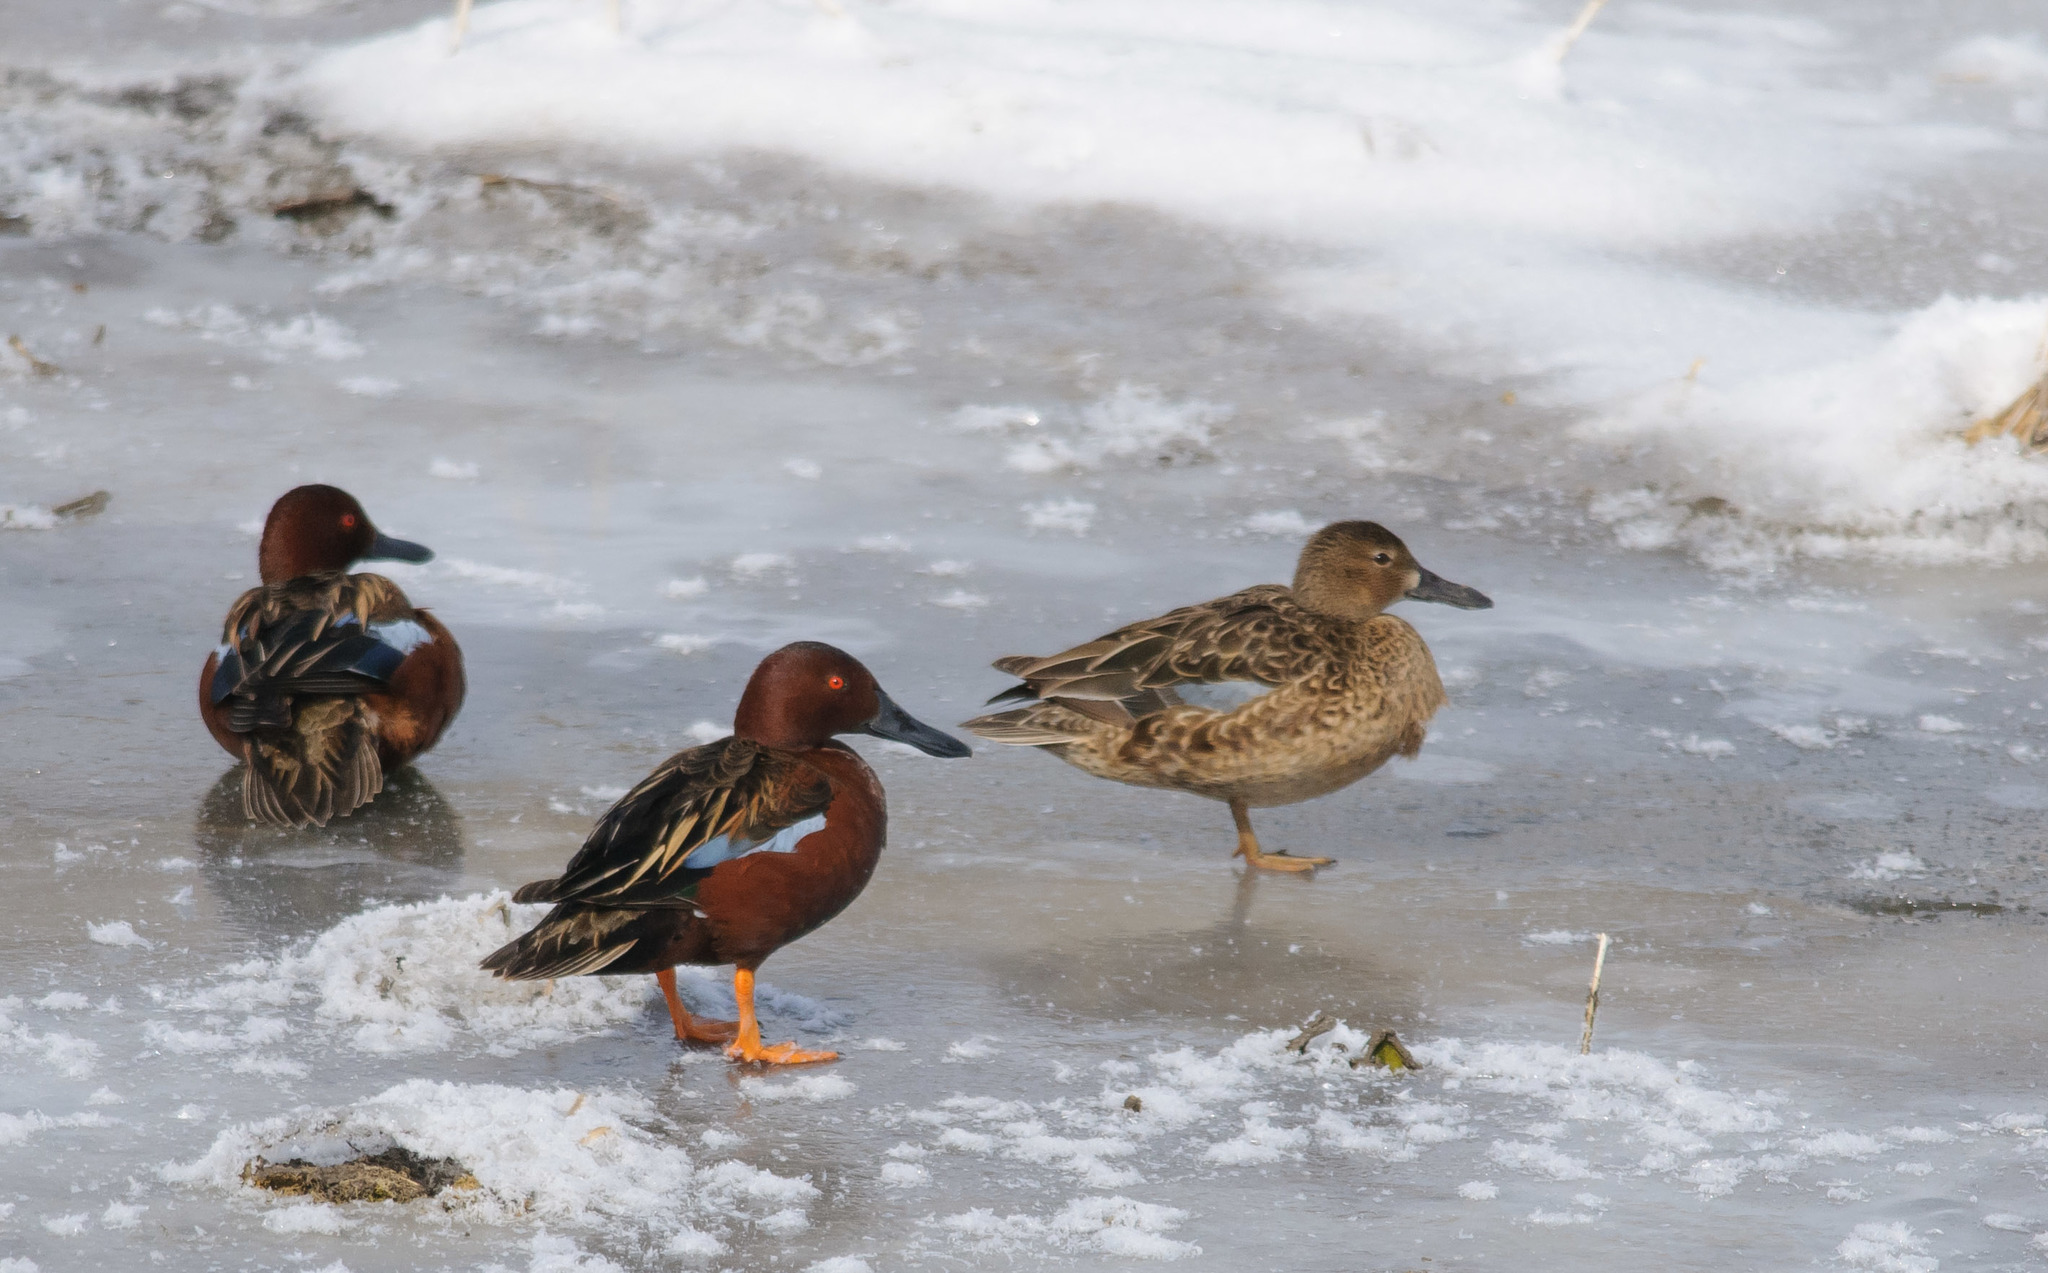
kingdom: Animalia
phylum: Chordata
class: Aves
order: Anseriformes
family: Anatidae
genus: Spatula
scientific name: Spatula cyanoptera
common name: Cinnamon teal
